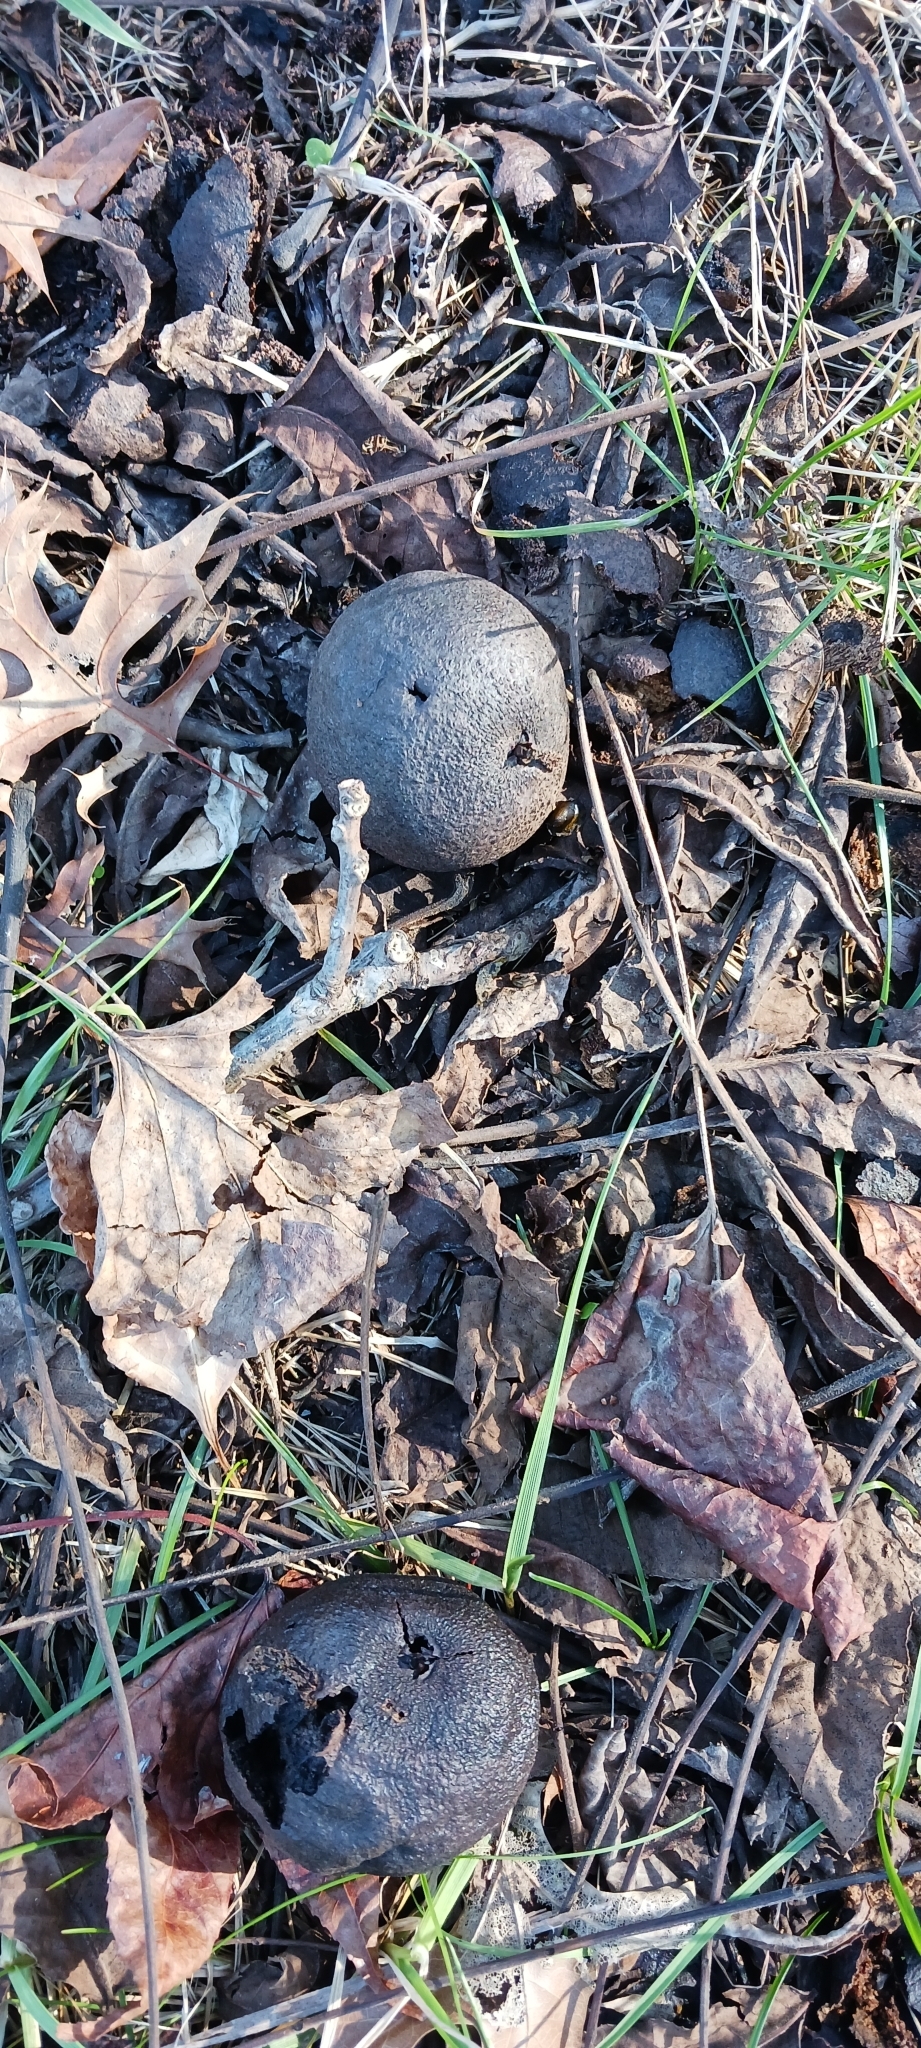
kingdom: Plantae
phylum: Tracheophyta
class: Magnoliopsida
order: Fagales
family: Juglandaceae
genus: Juglans
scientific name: Juglans nigra
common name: Black walnut
